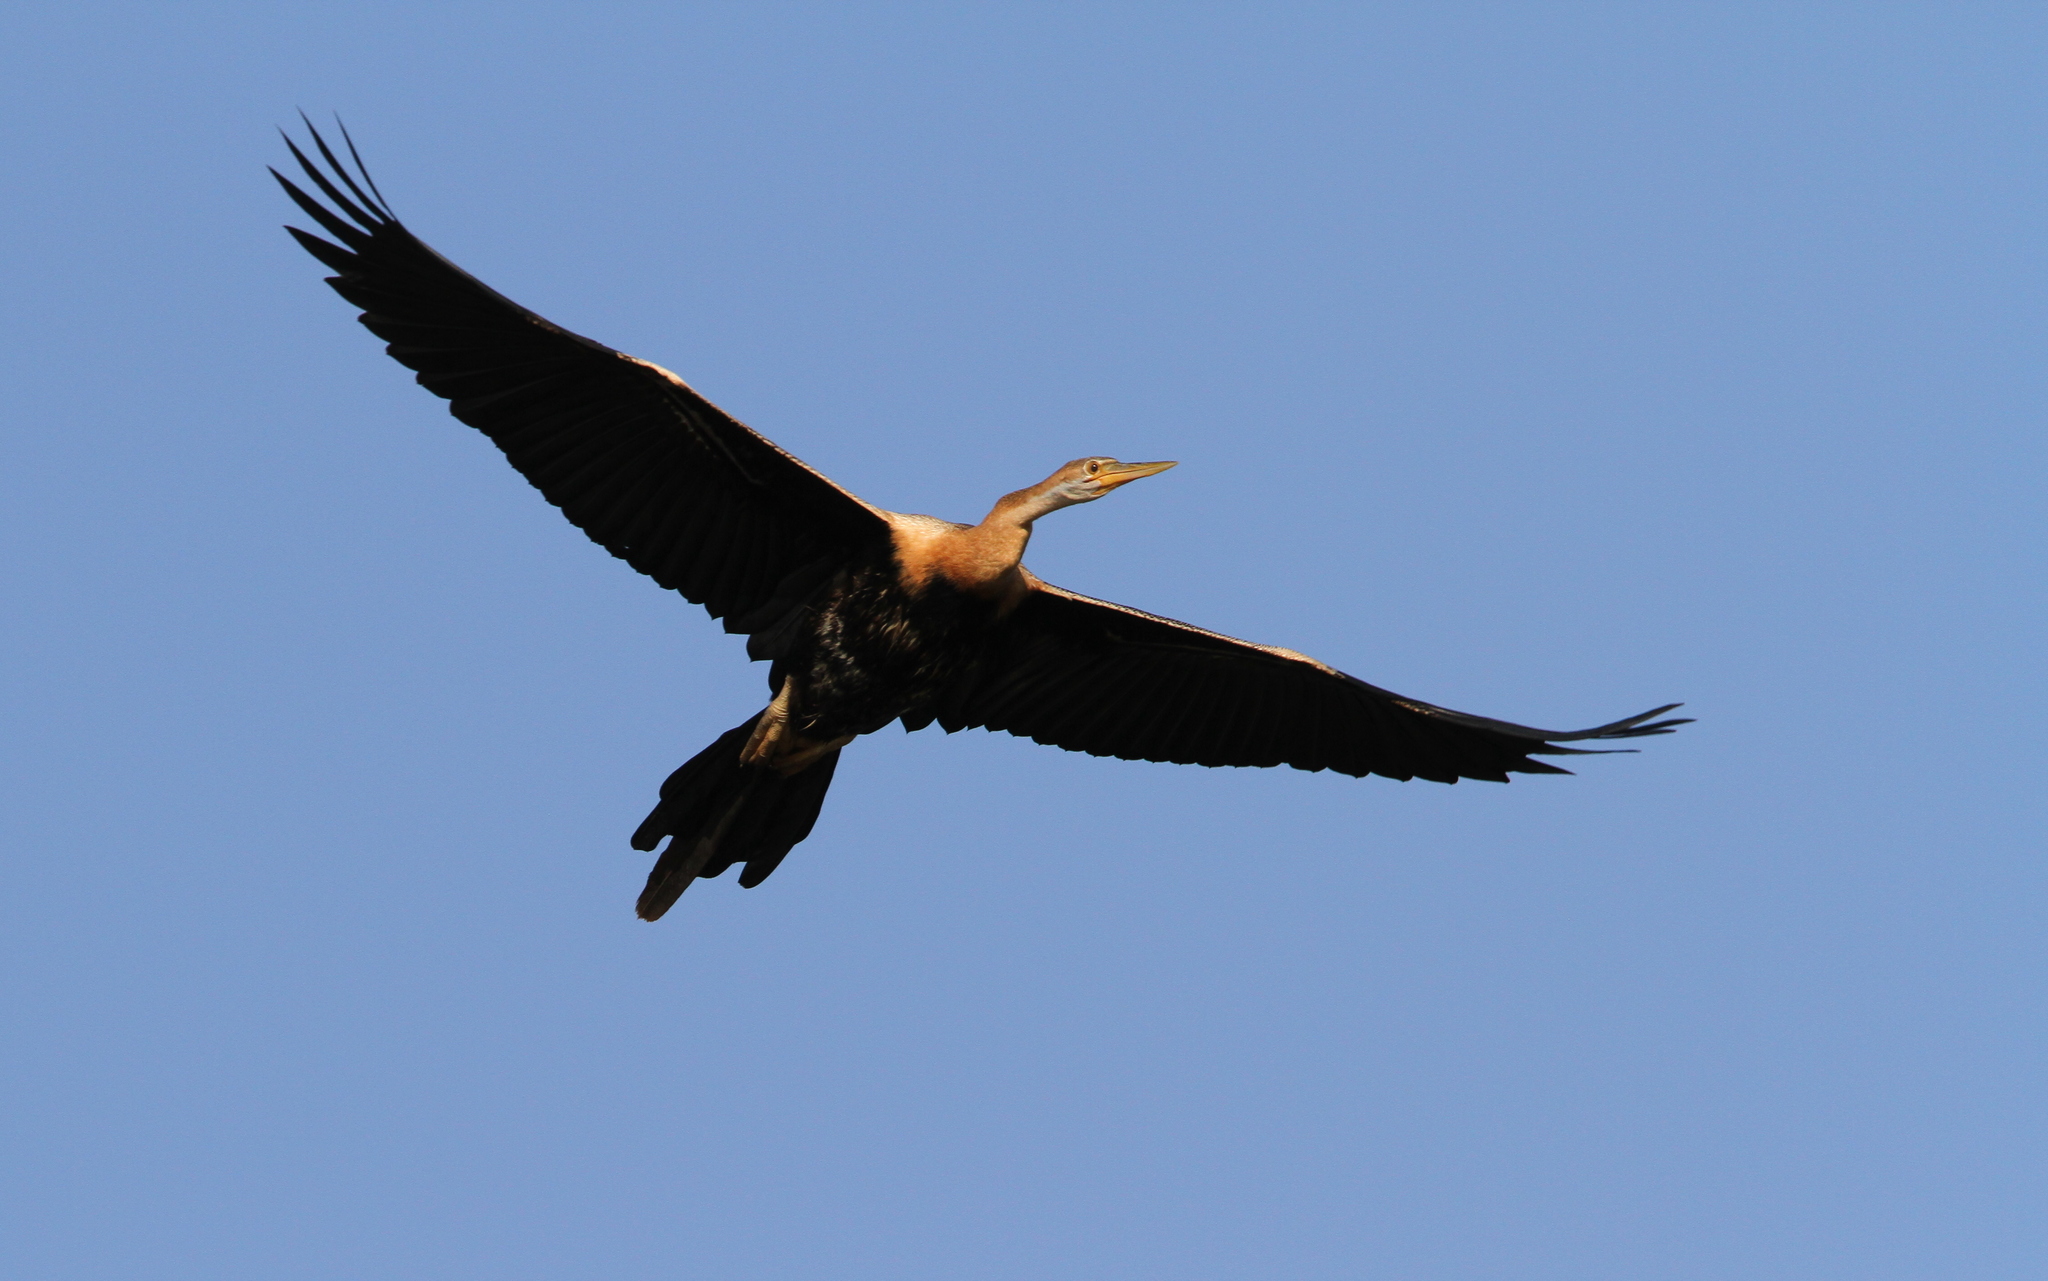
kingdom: Animalia
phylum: Chordata
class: Aves
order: Suliformes
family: Anhingidae
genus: Anhinga
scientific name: Anhinga rufa
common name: African darter
